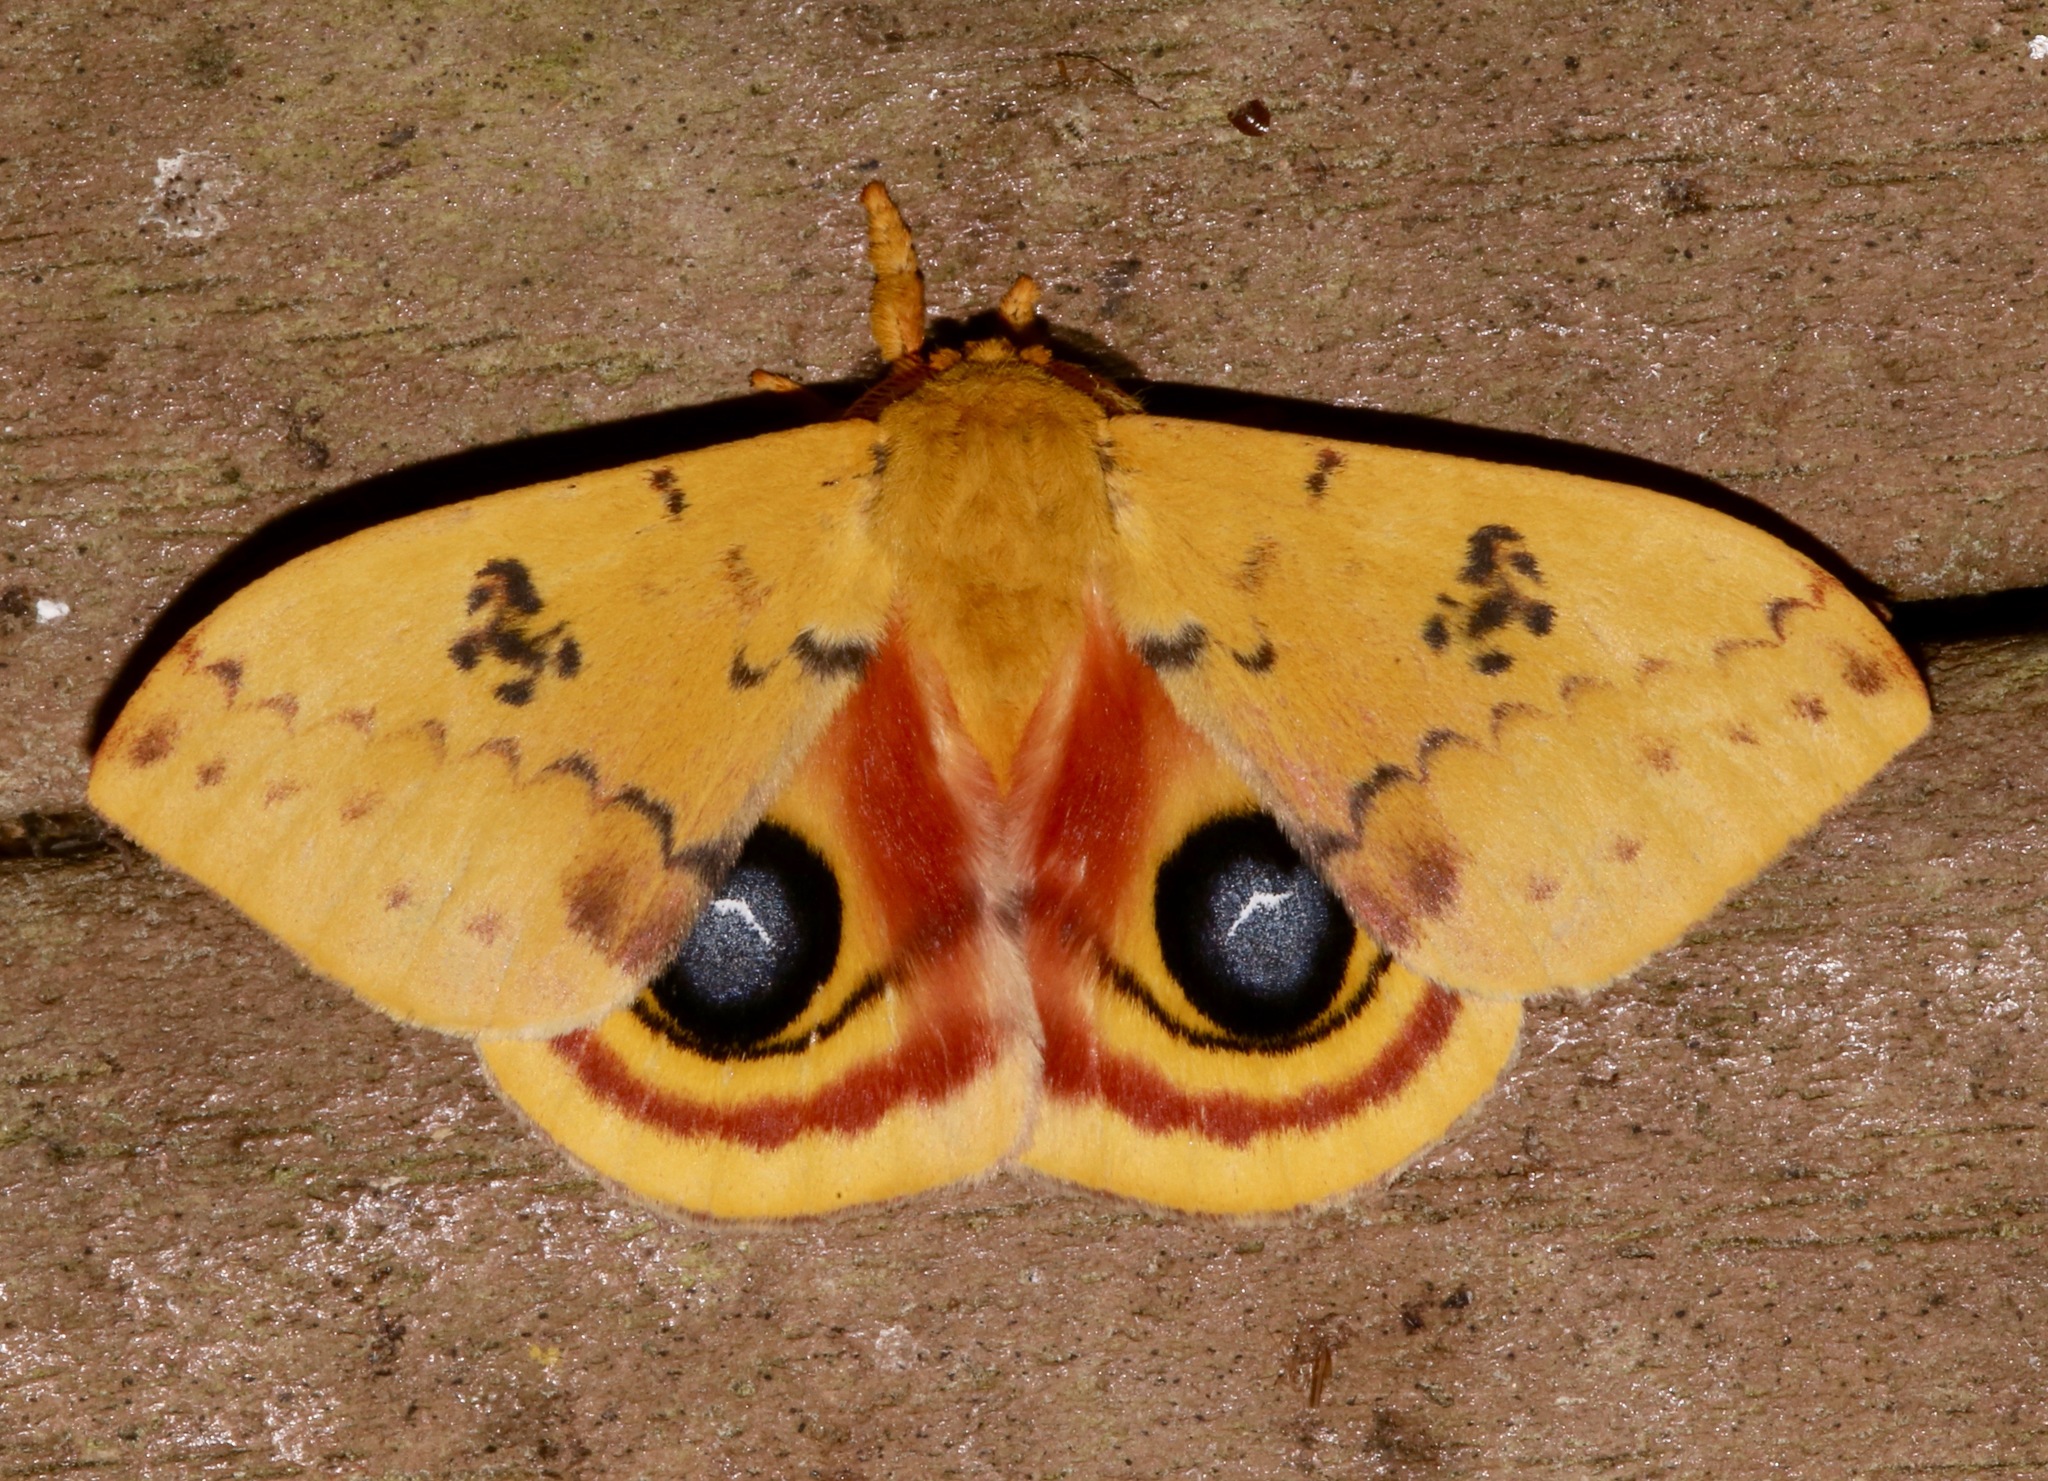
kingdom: Animalia
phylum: Arthropoda
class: Insecta
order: Lepidoptera
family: Saturniidae
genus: Automeris
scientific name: Automeris io
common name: Io moth
